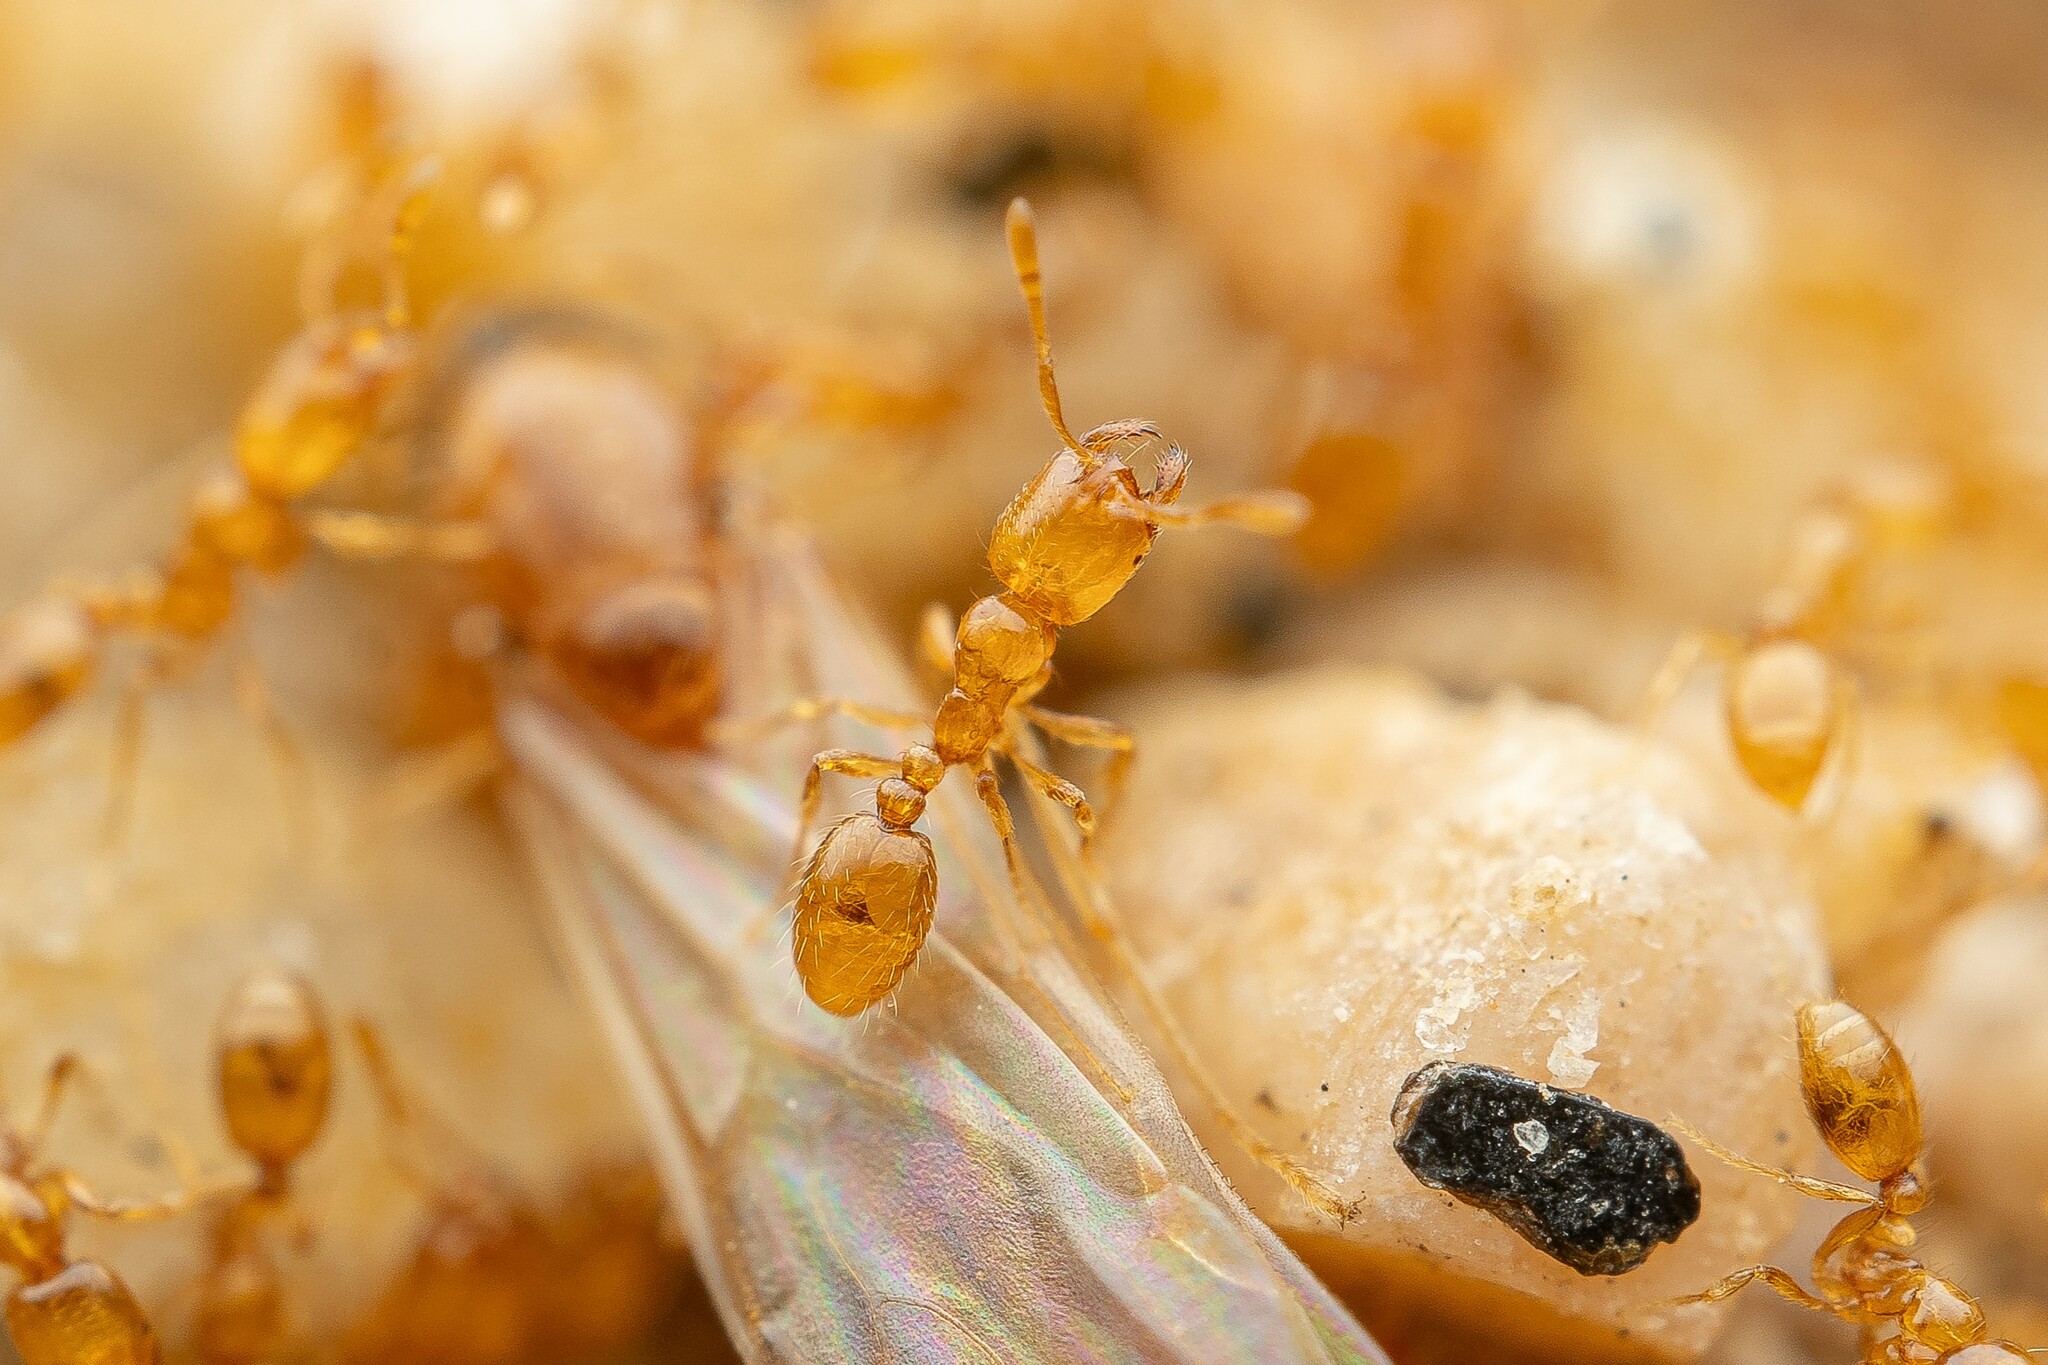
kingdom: Animalia
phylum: Arthropoda
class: Insecta
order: Hymenoptera
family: Formicidae
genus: Solenopsis
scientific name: Solenopsis krockowi
